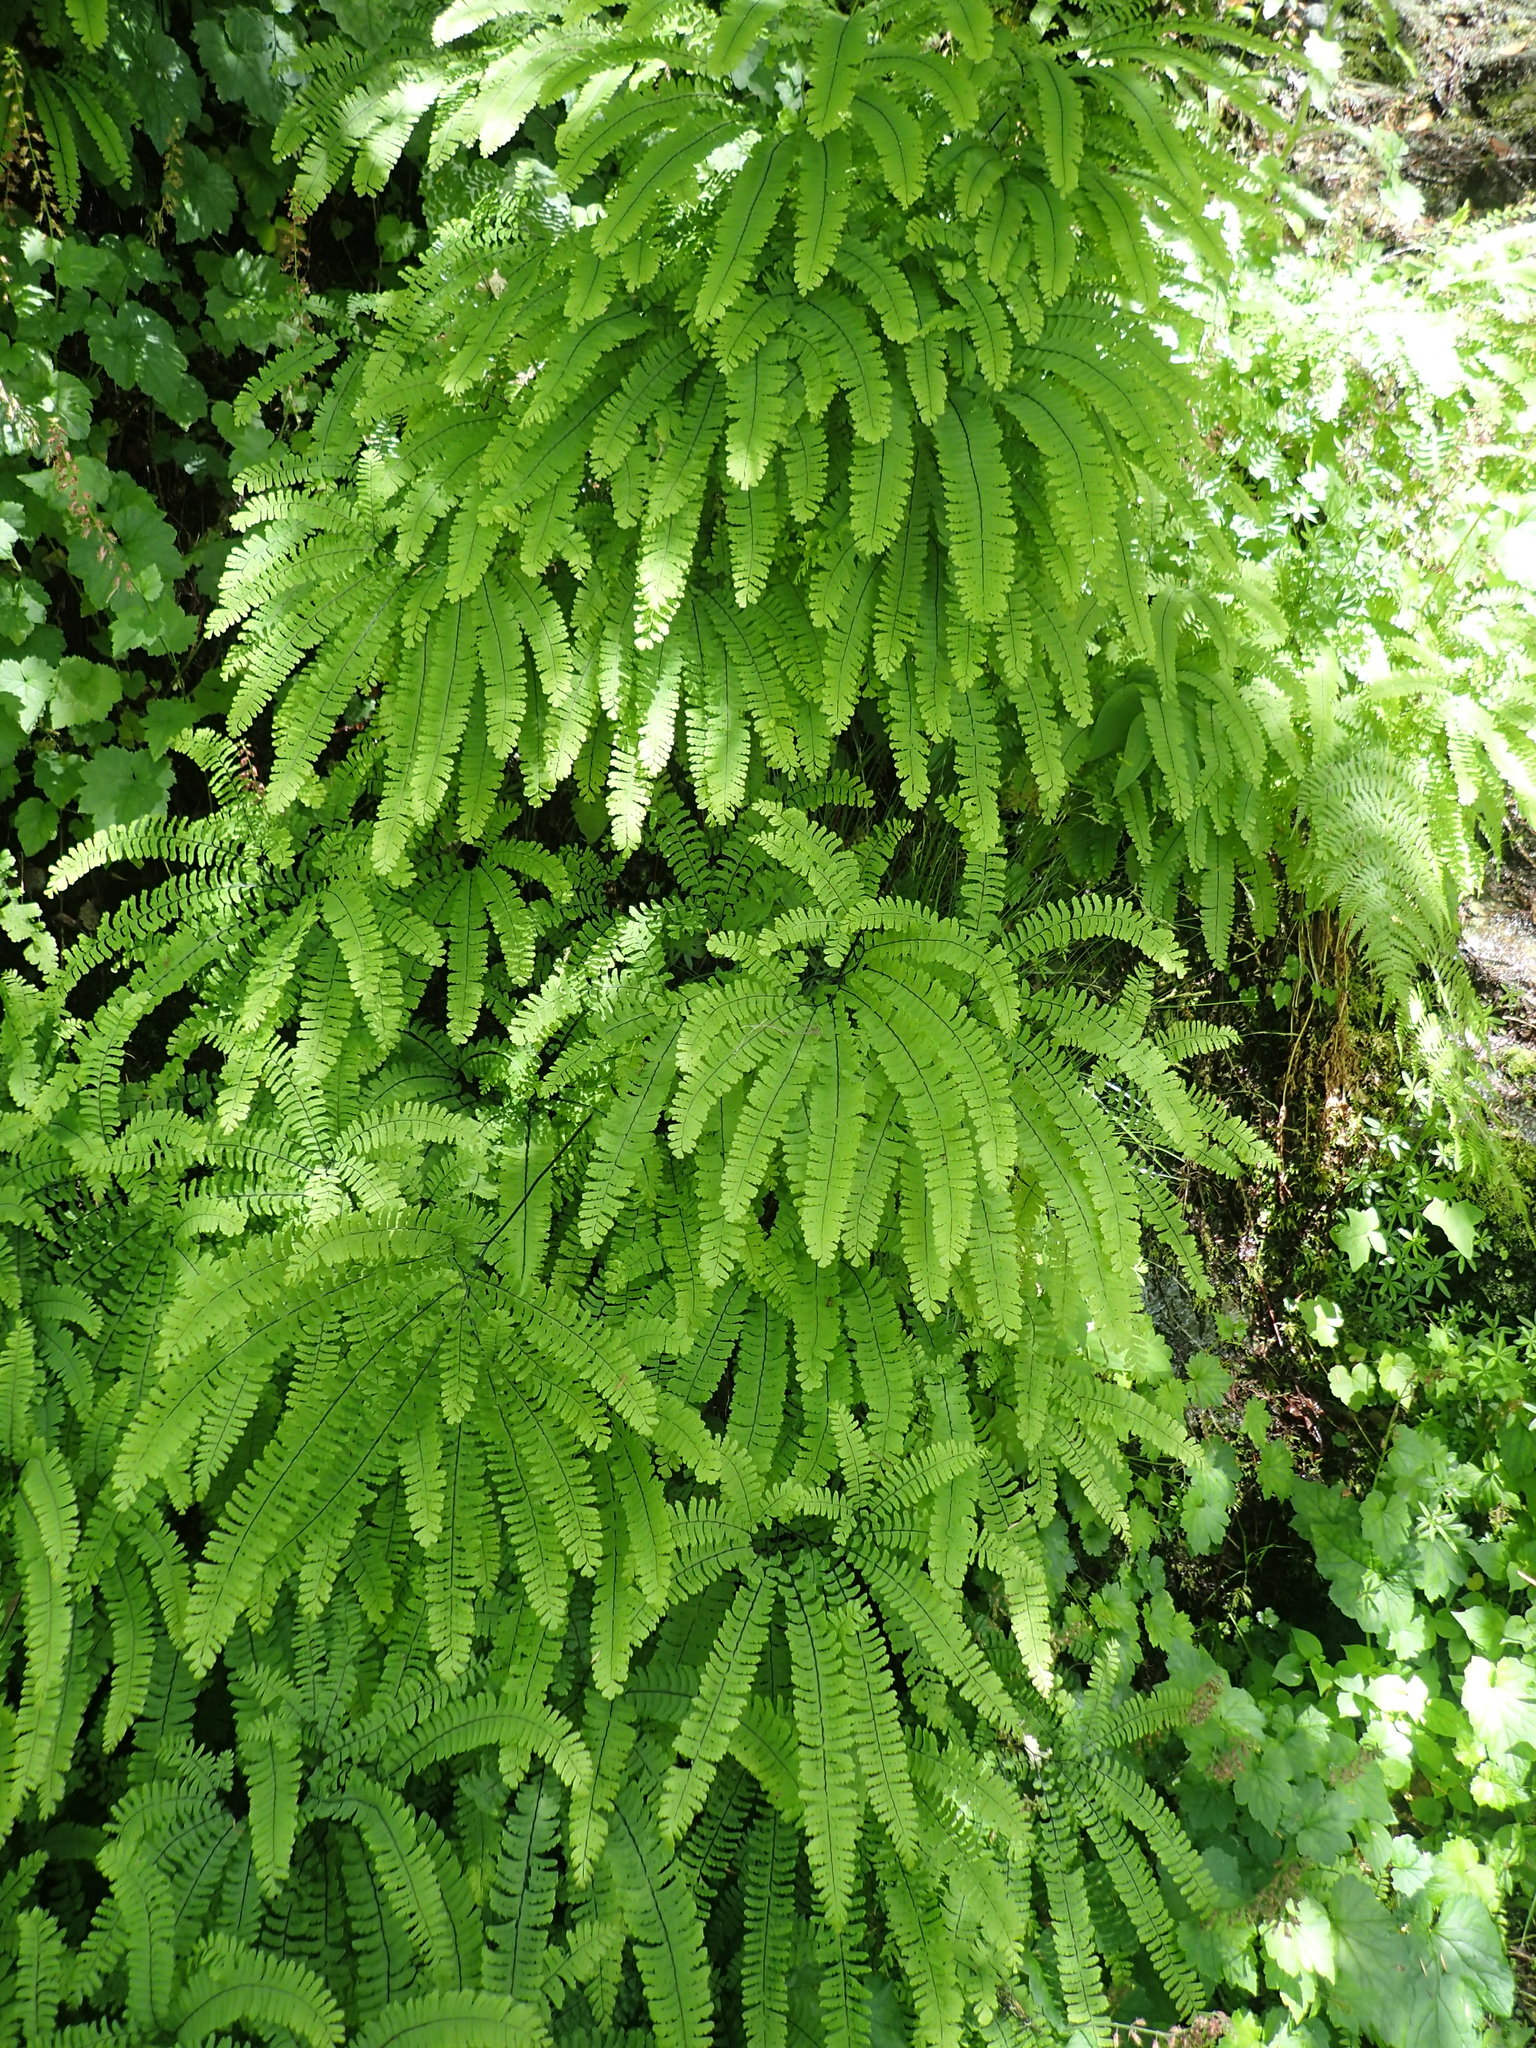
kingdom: Plantae
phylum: Tracheophyta
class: Polypodiopsida
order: Polypodiales
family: Pteridaceae
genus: Adiantum
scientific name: Adiantum aleuticum
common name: Aleutian maidenhair fern
